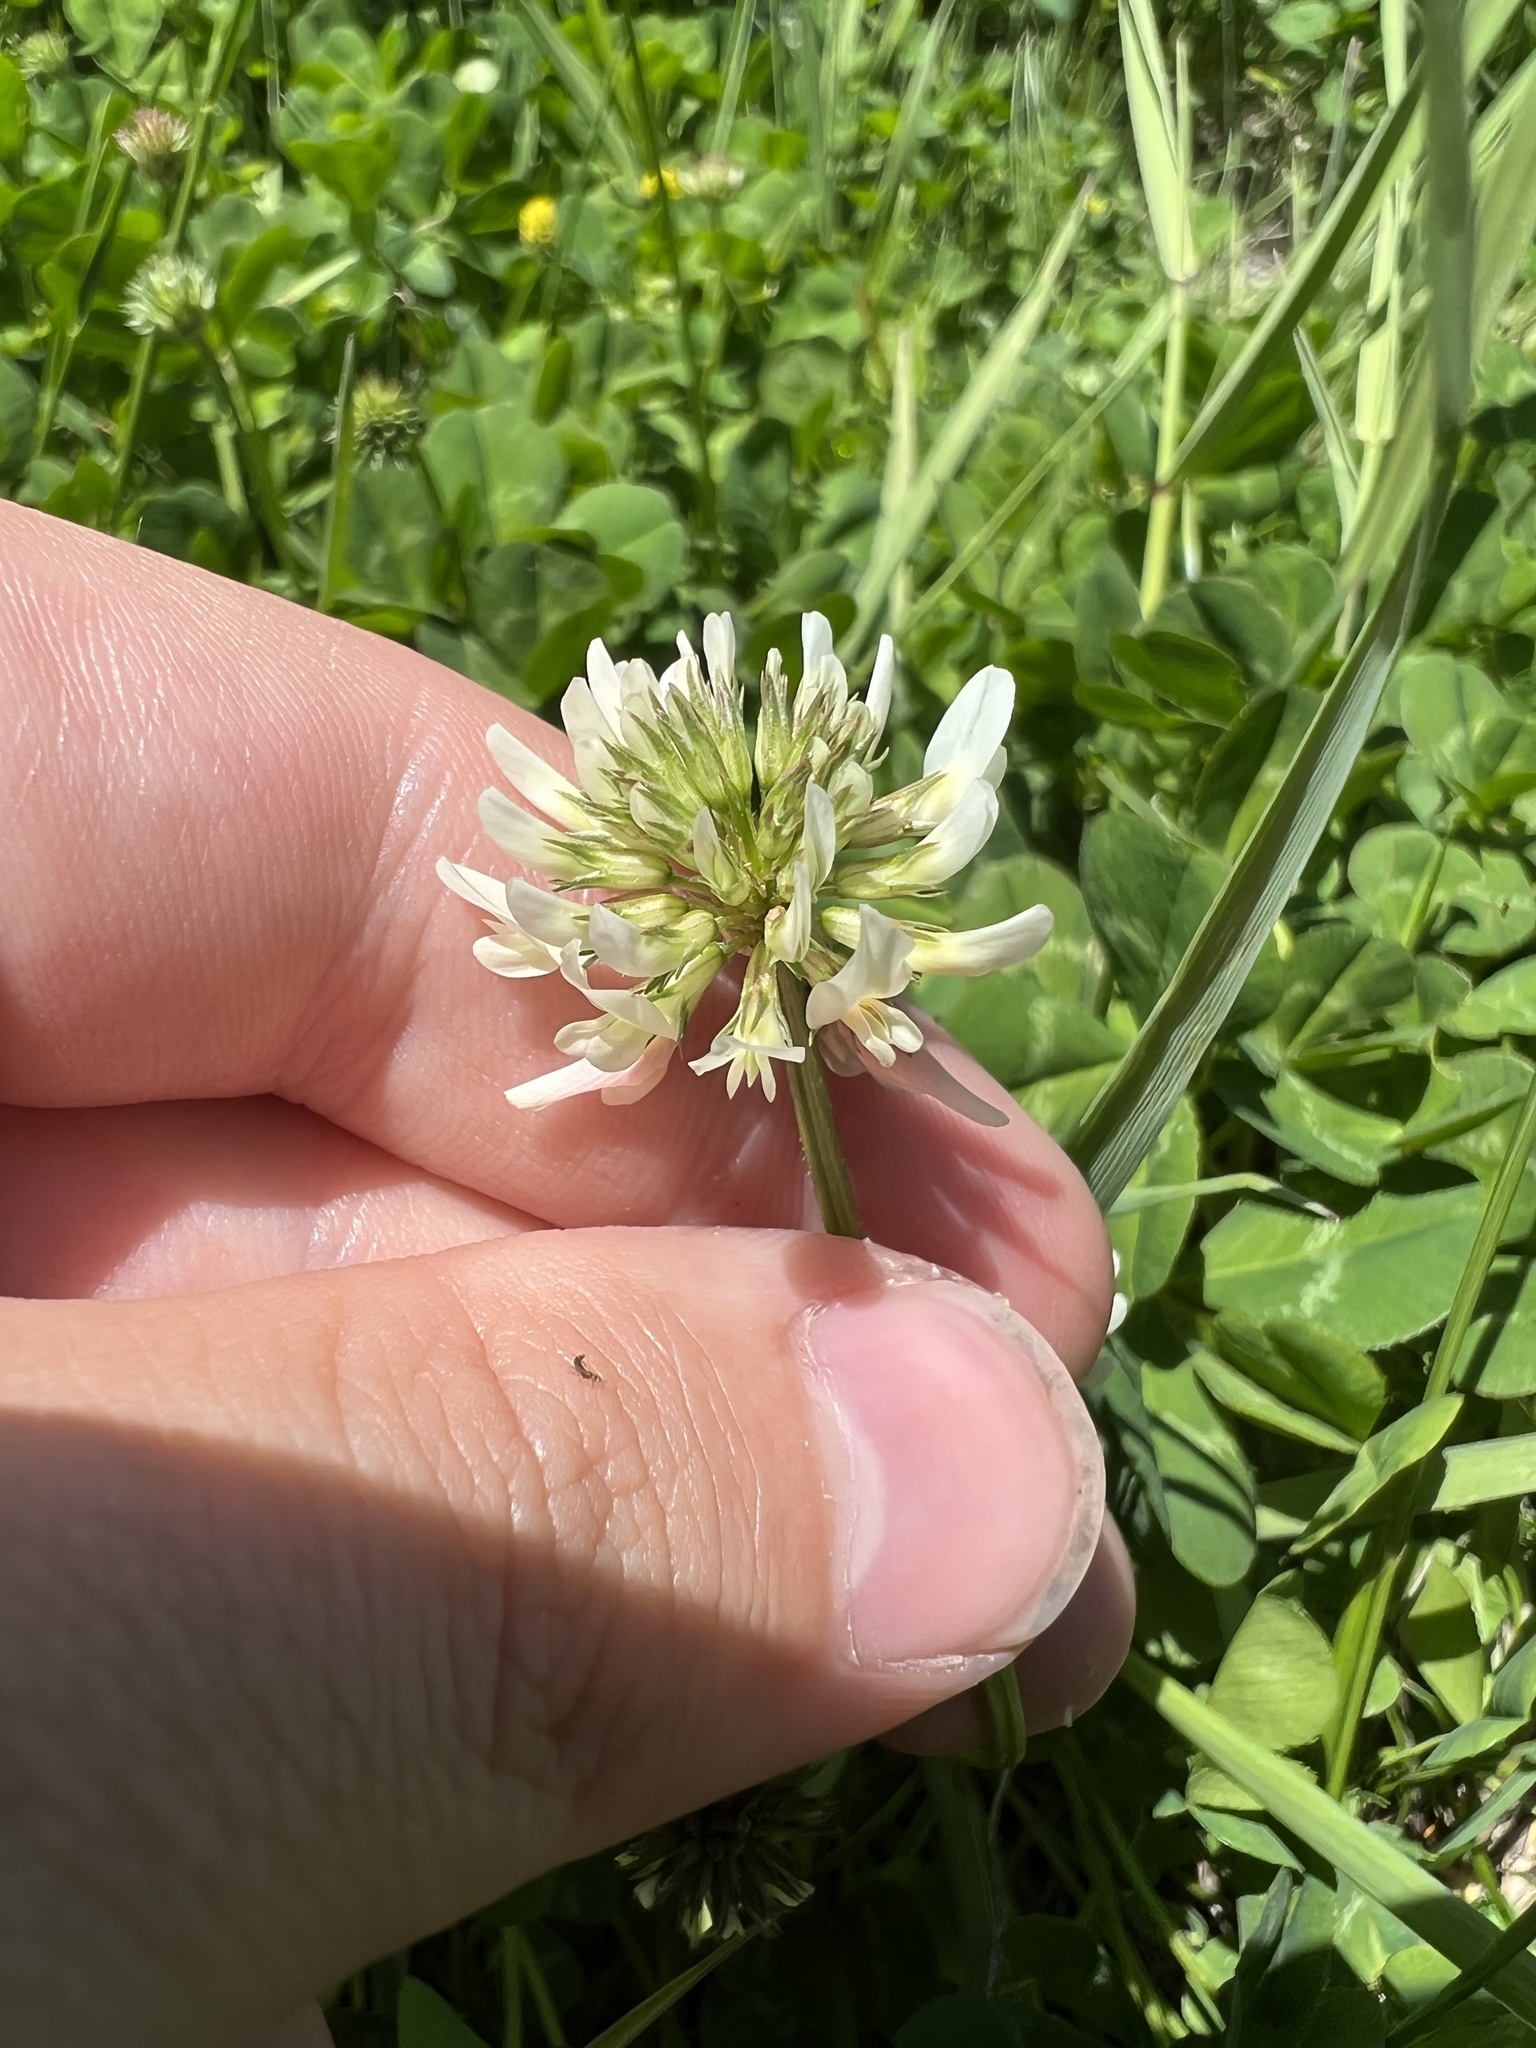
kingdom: Plantae
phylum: Tracheophyta
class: Magnoliopsida
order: Fabales
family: Fabaceae
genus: Trifolium
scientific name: Trifolium repens
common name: White clover
